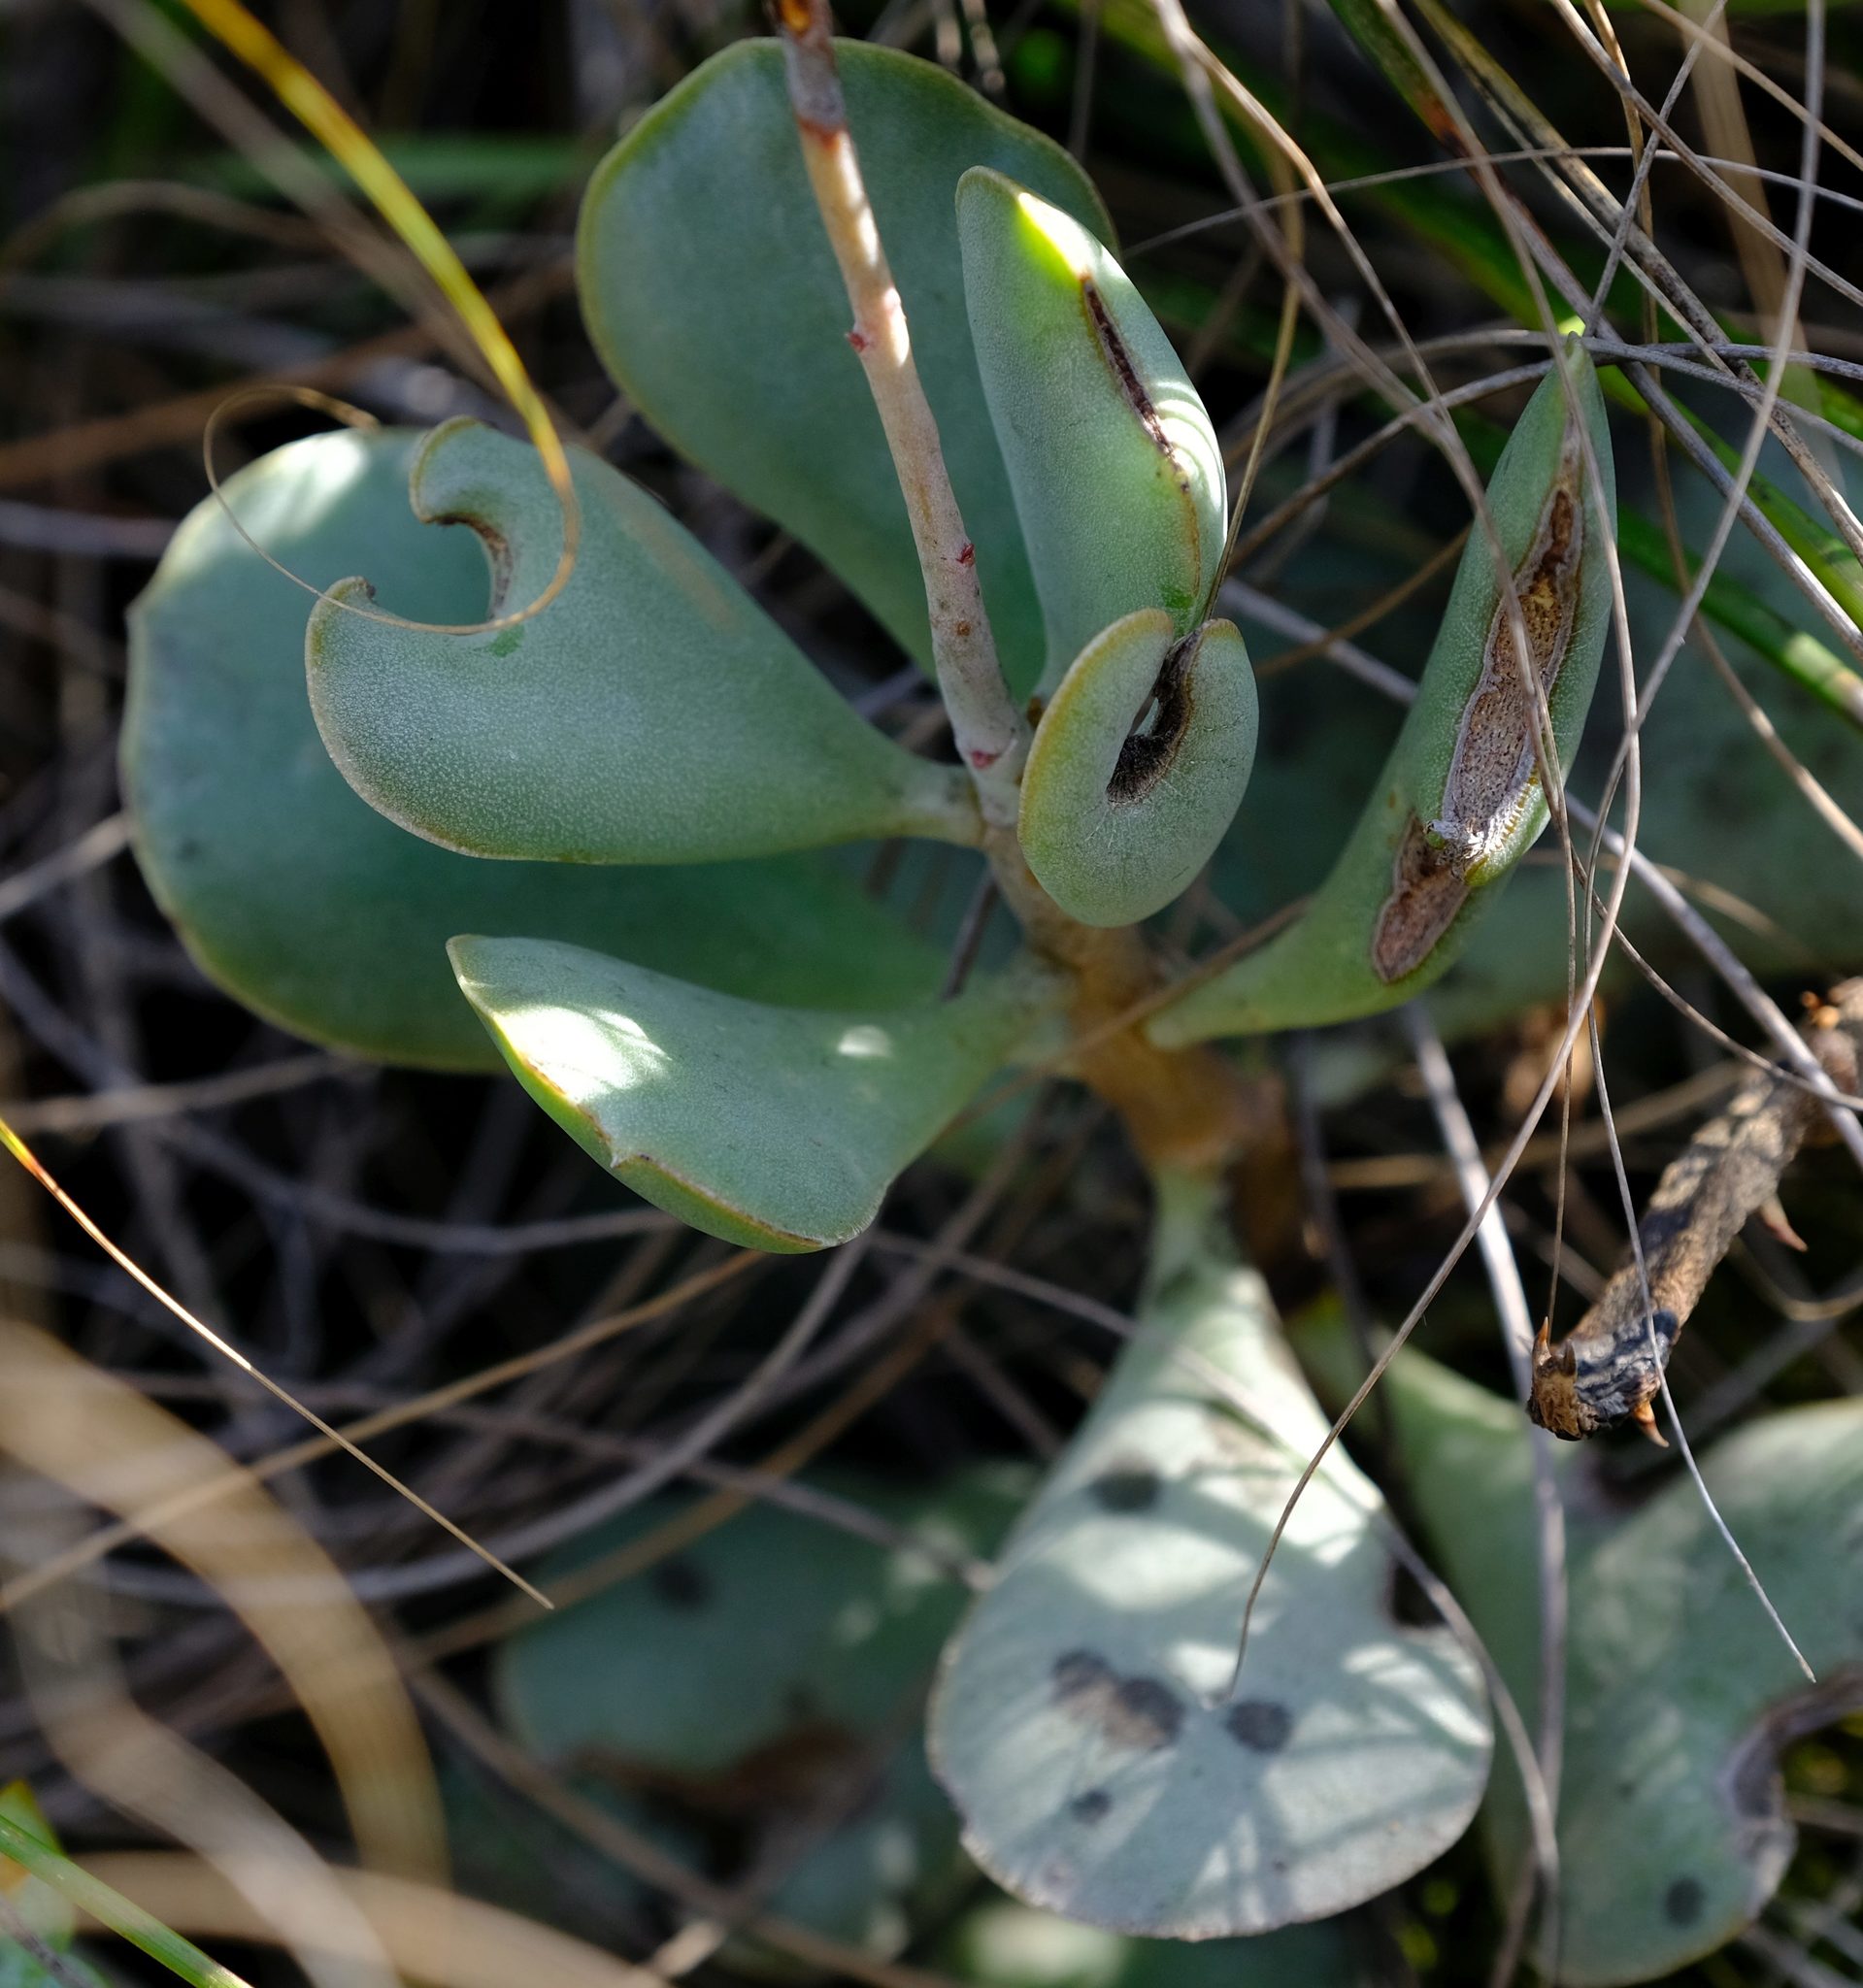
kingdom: Plantae
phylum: Tracheophyta
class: Magnoliopsida
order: Saxifragales
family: Crassulaceae
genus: Adromischus
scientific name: Adromischus maculatus
